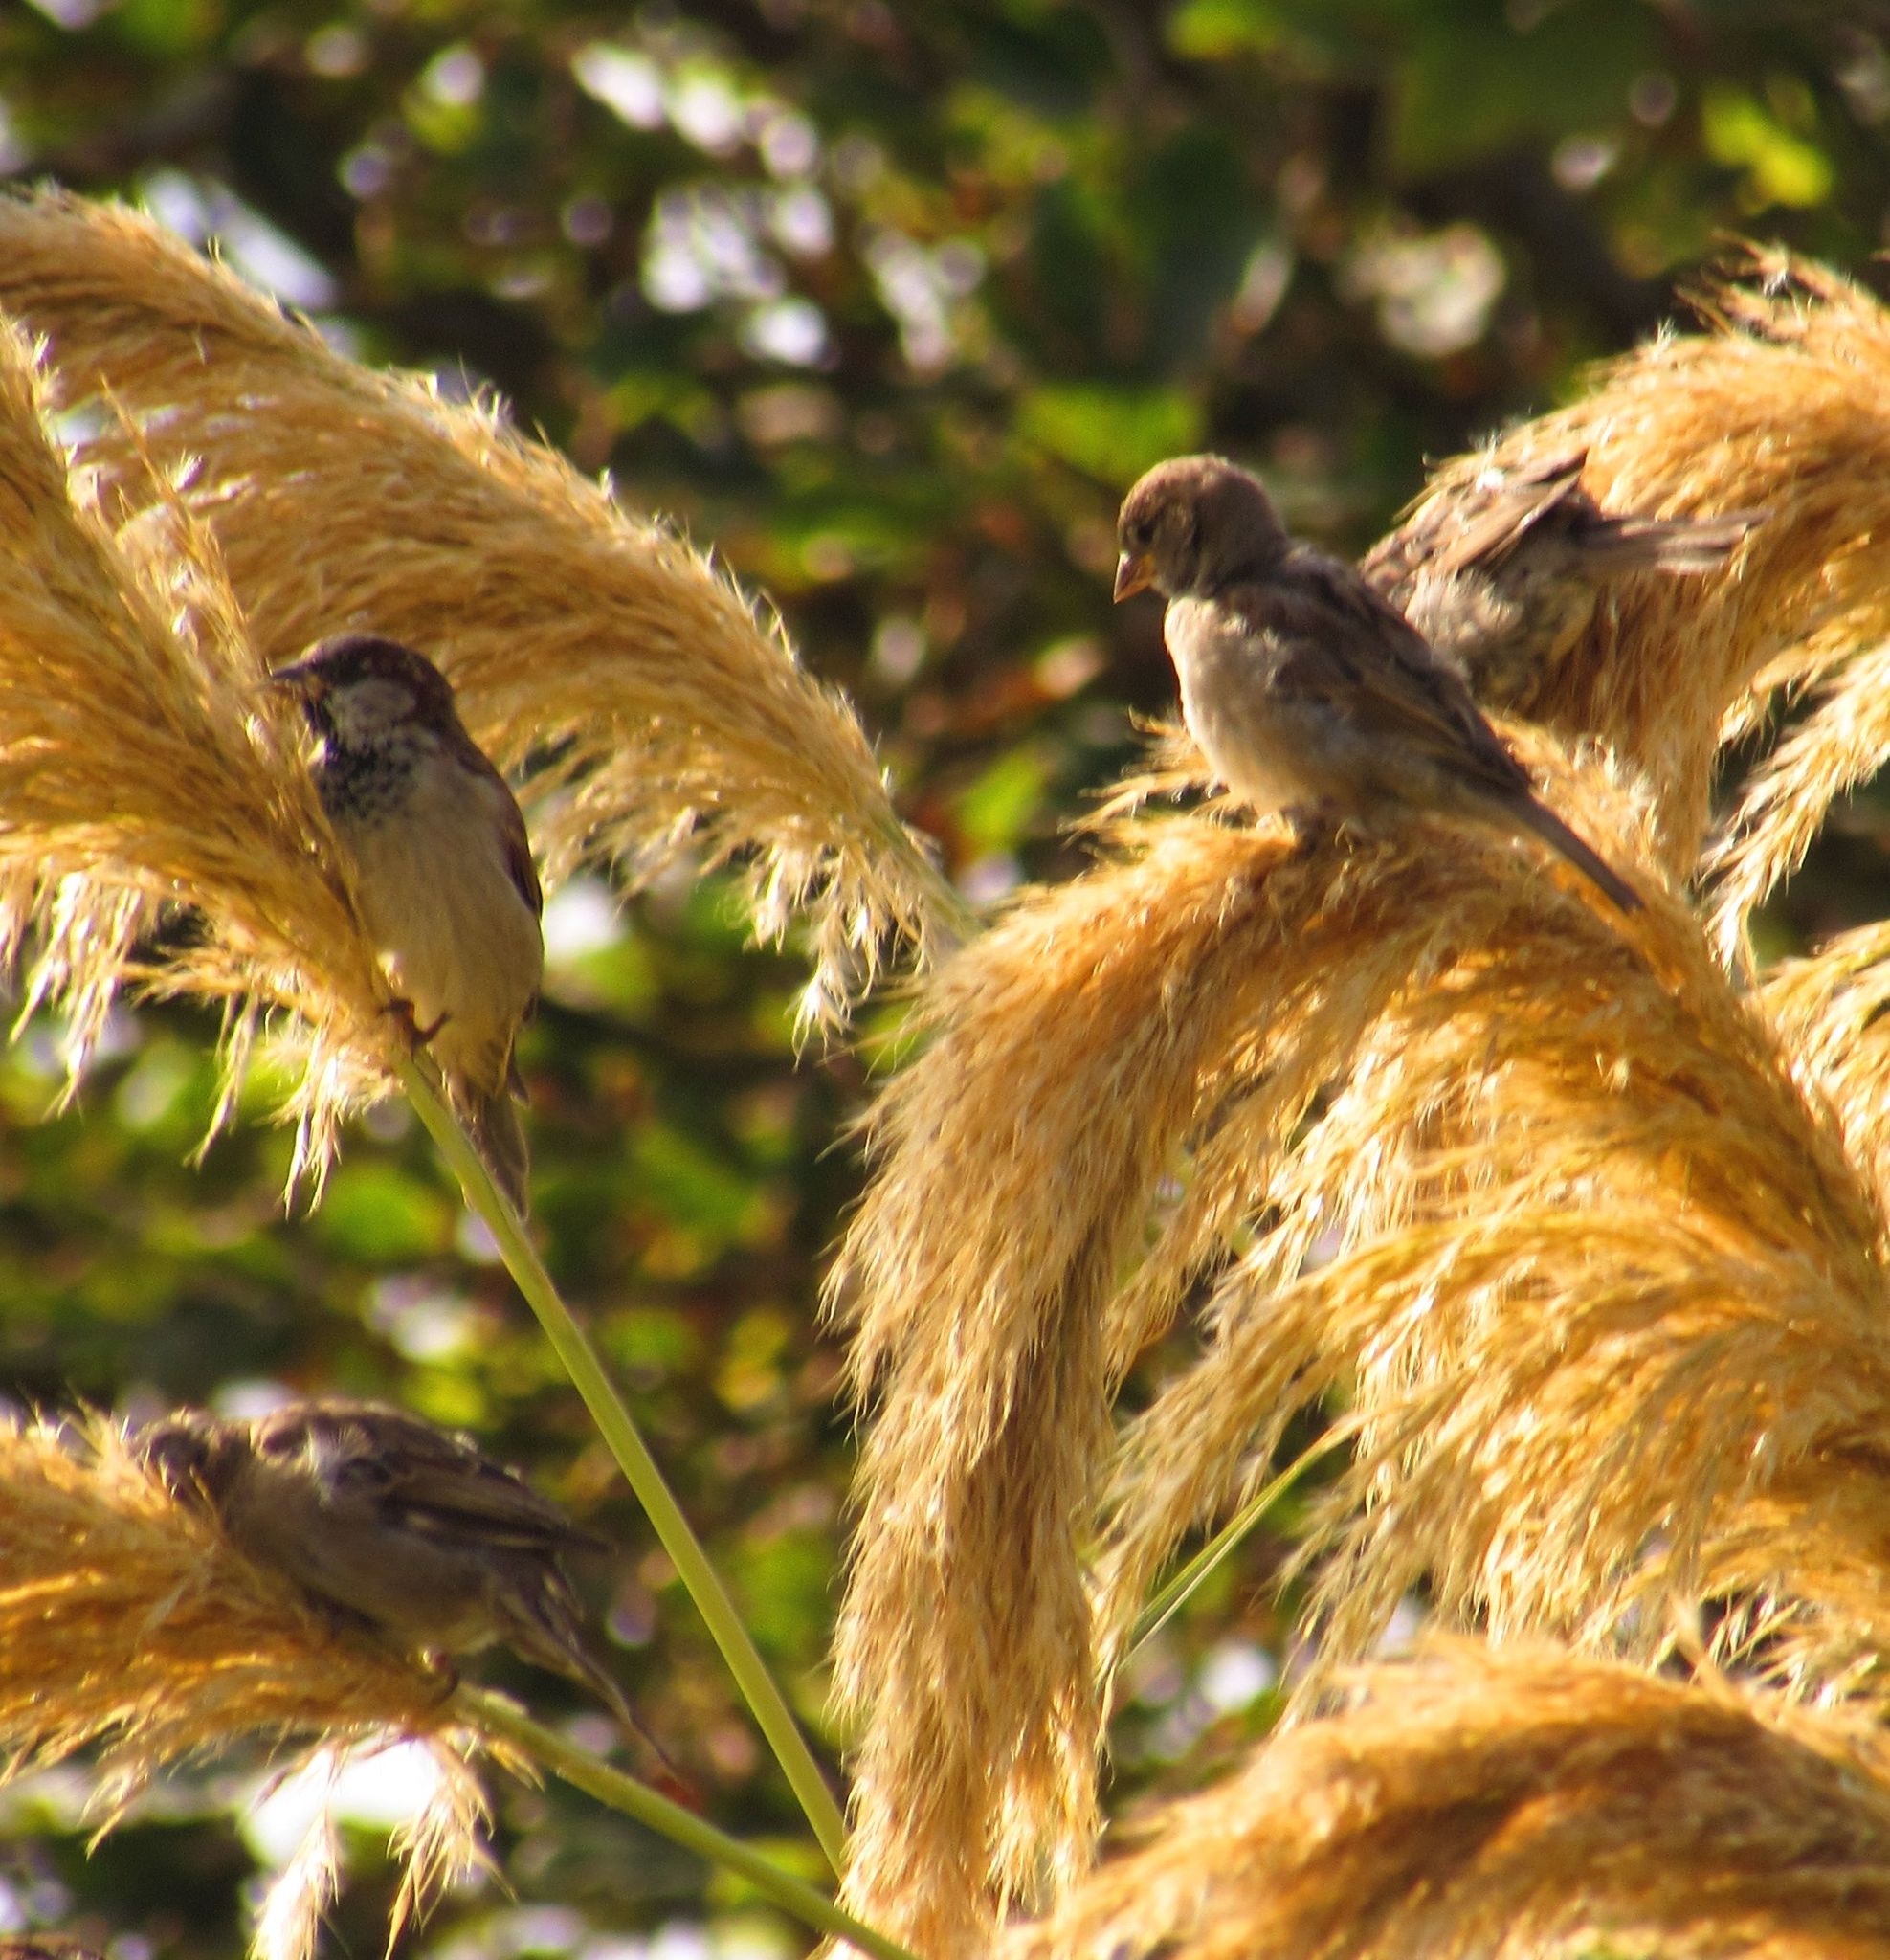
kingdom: Animalia
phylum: Chordata
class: Aves
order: Passeriformes
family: Passeridae
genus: Passer
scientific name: Passer domesticus
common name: House sparrow
